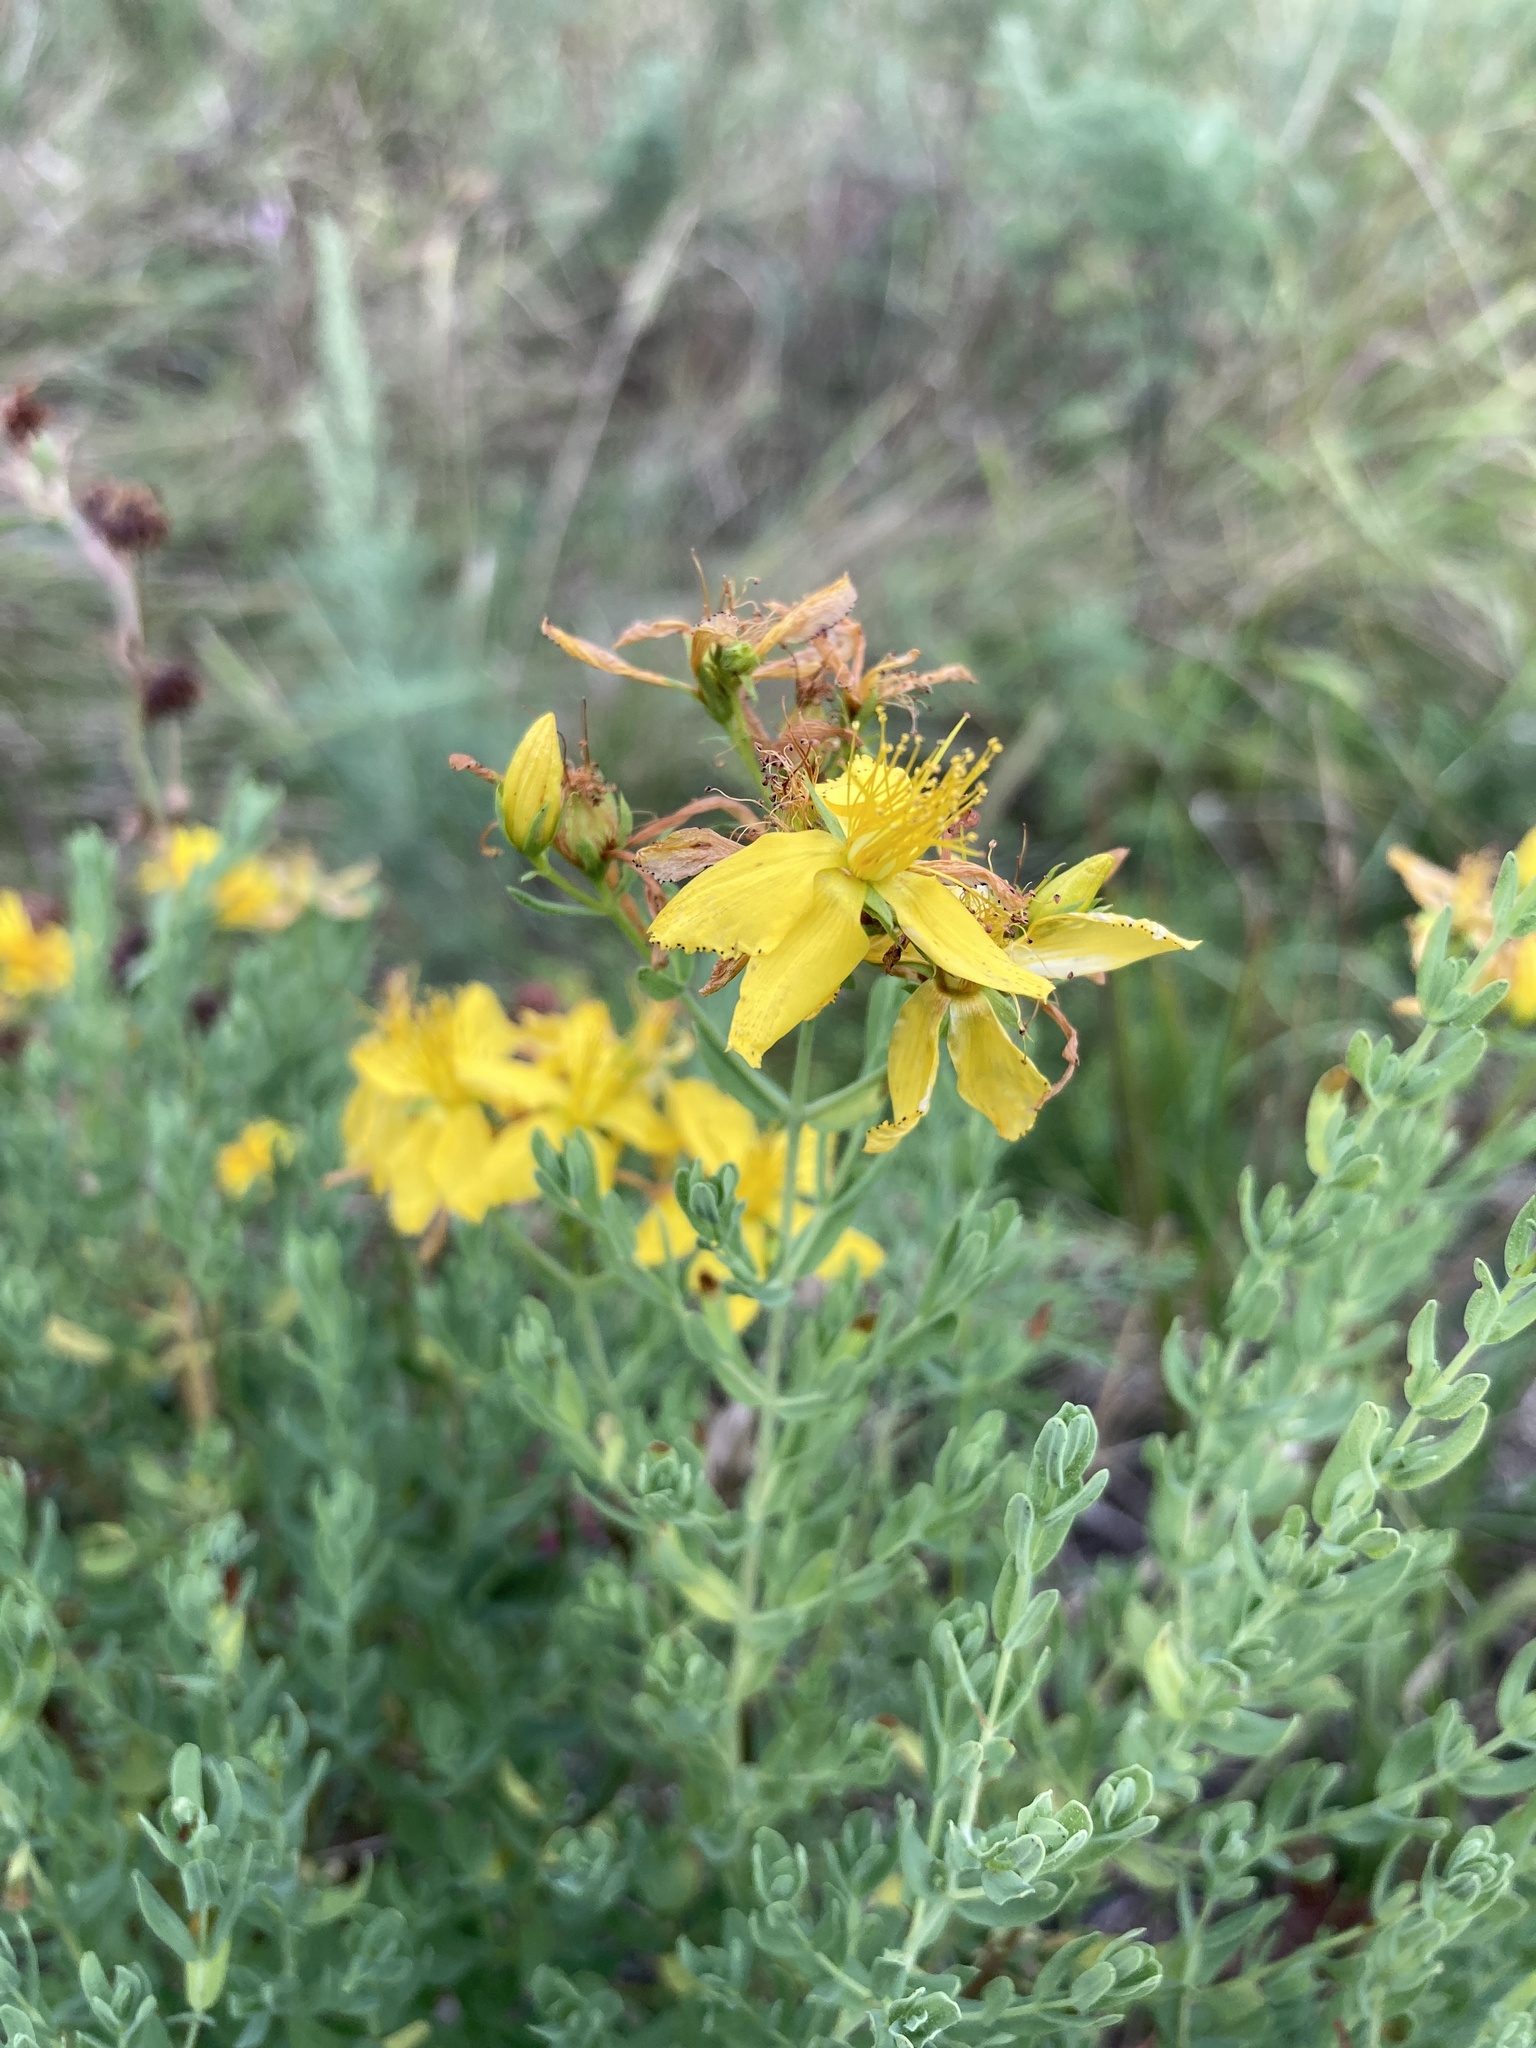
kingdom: Plantae
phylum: Tracheophyta
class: Magnoliopsida
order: Malpighiales
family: Hypericaceae
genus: Hypericum
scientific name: Hypericum perforatum
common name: Common st. johnswort
